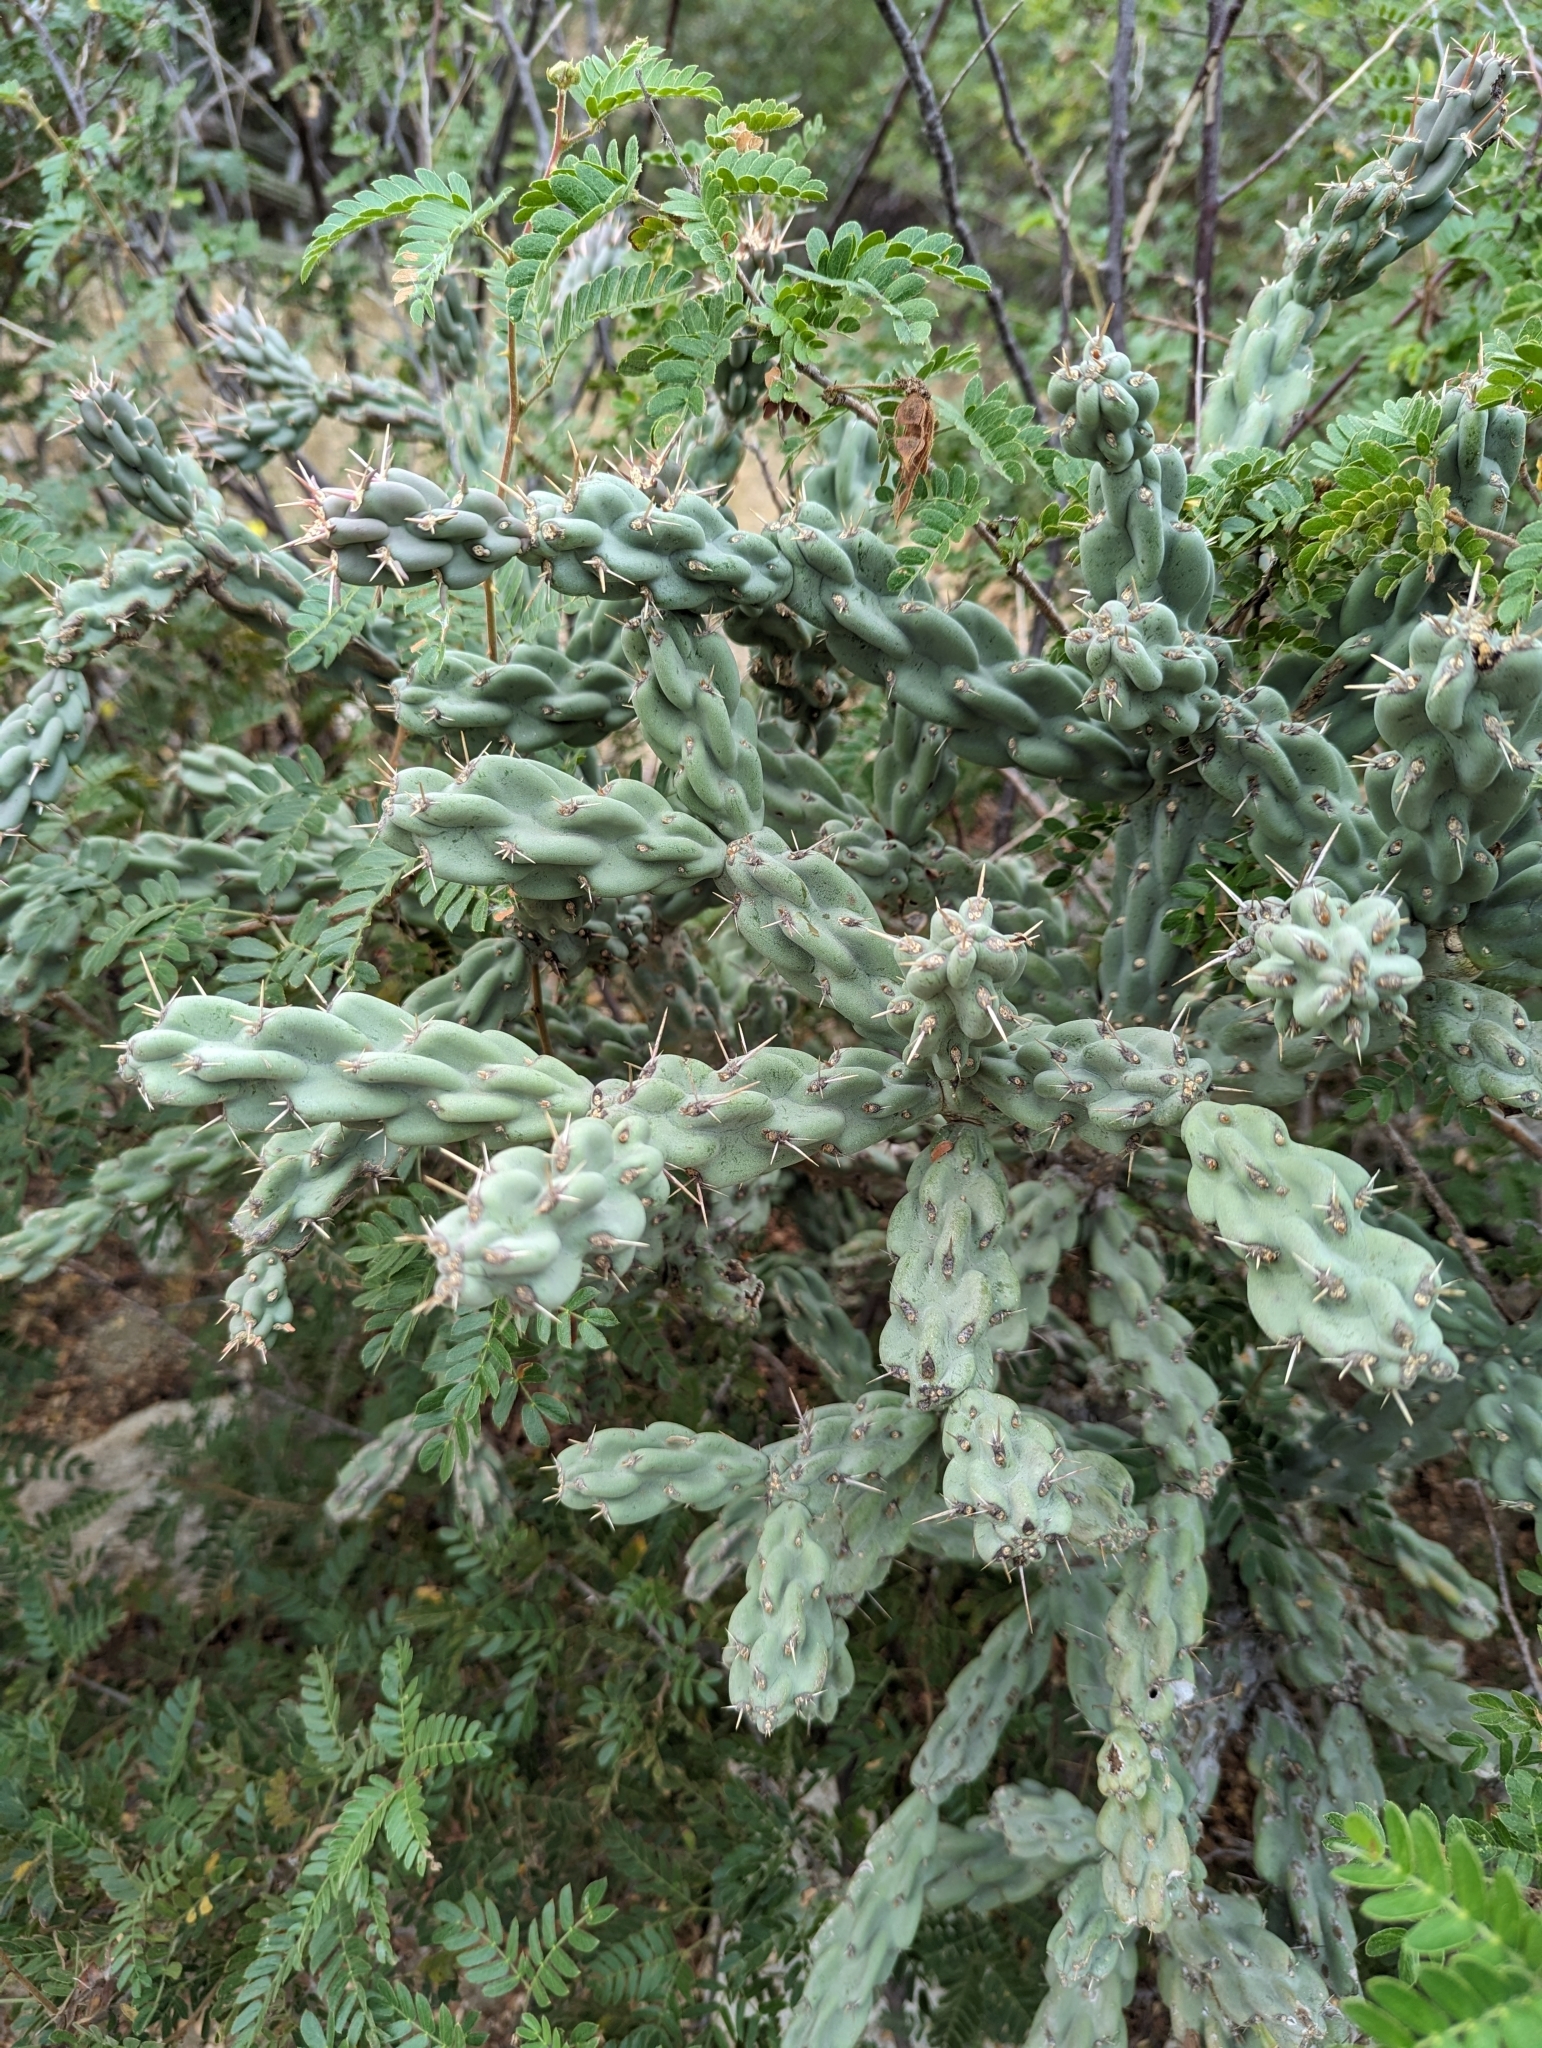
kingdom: Plantae
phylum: Tracheophyta
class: Magnoliopsida
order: Caryophyllales
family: Cactaceae
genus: Cylindropuntia
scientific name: Cylindropuntia cholla
